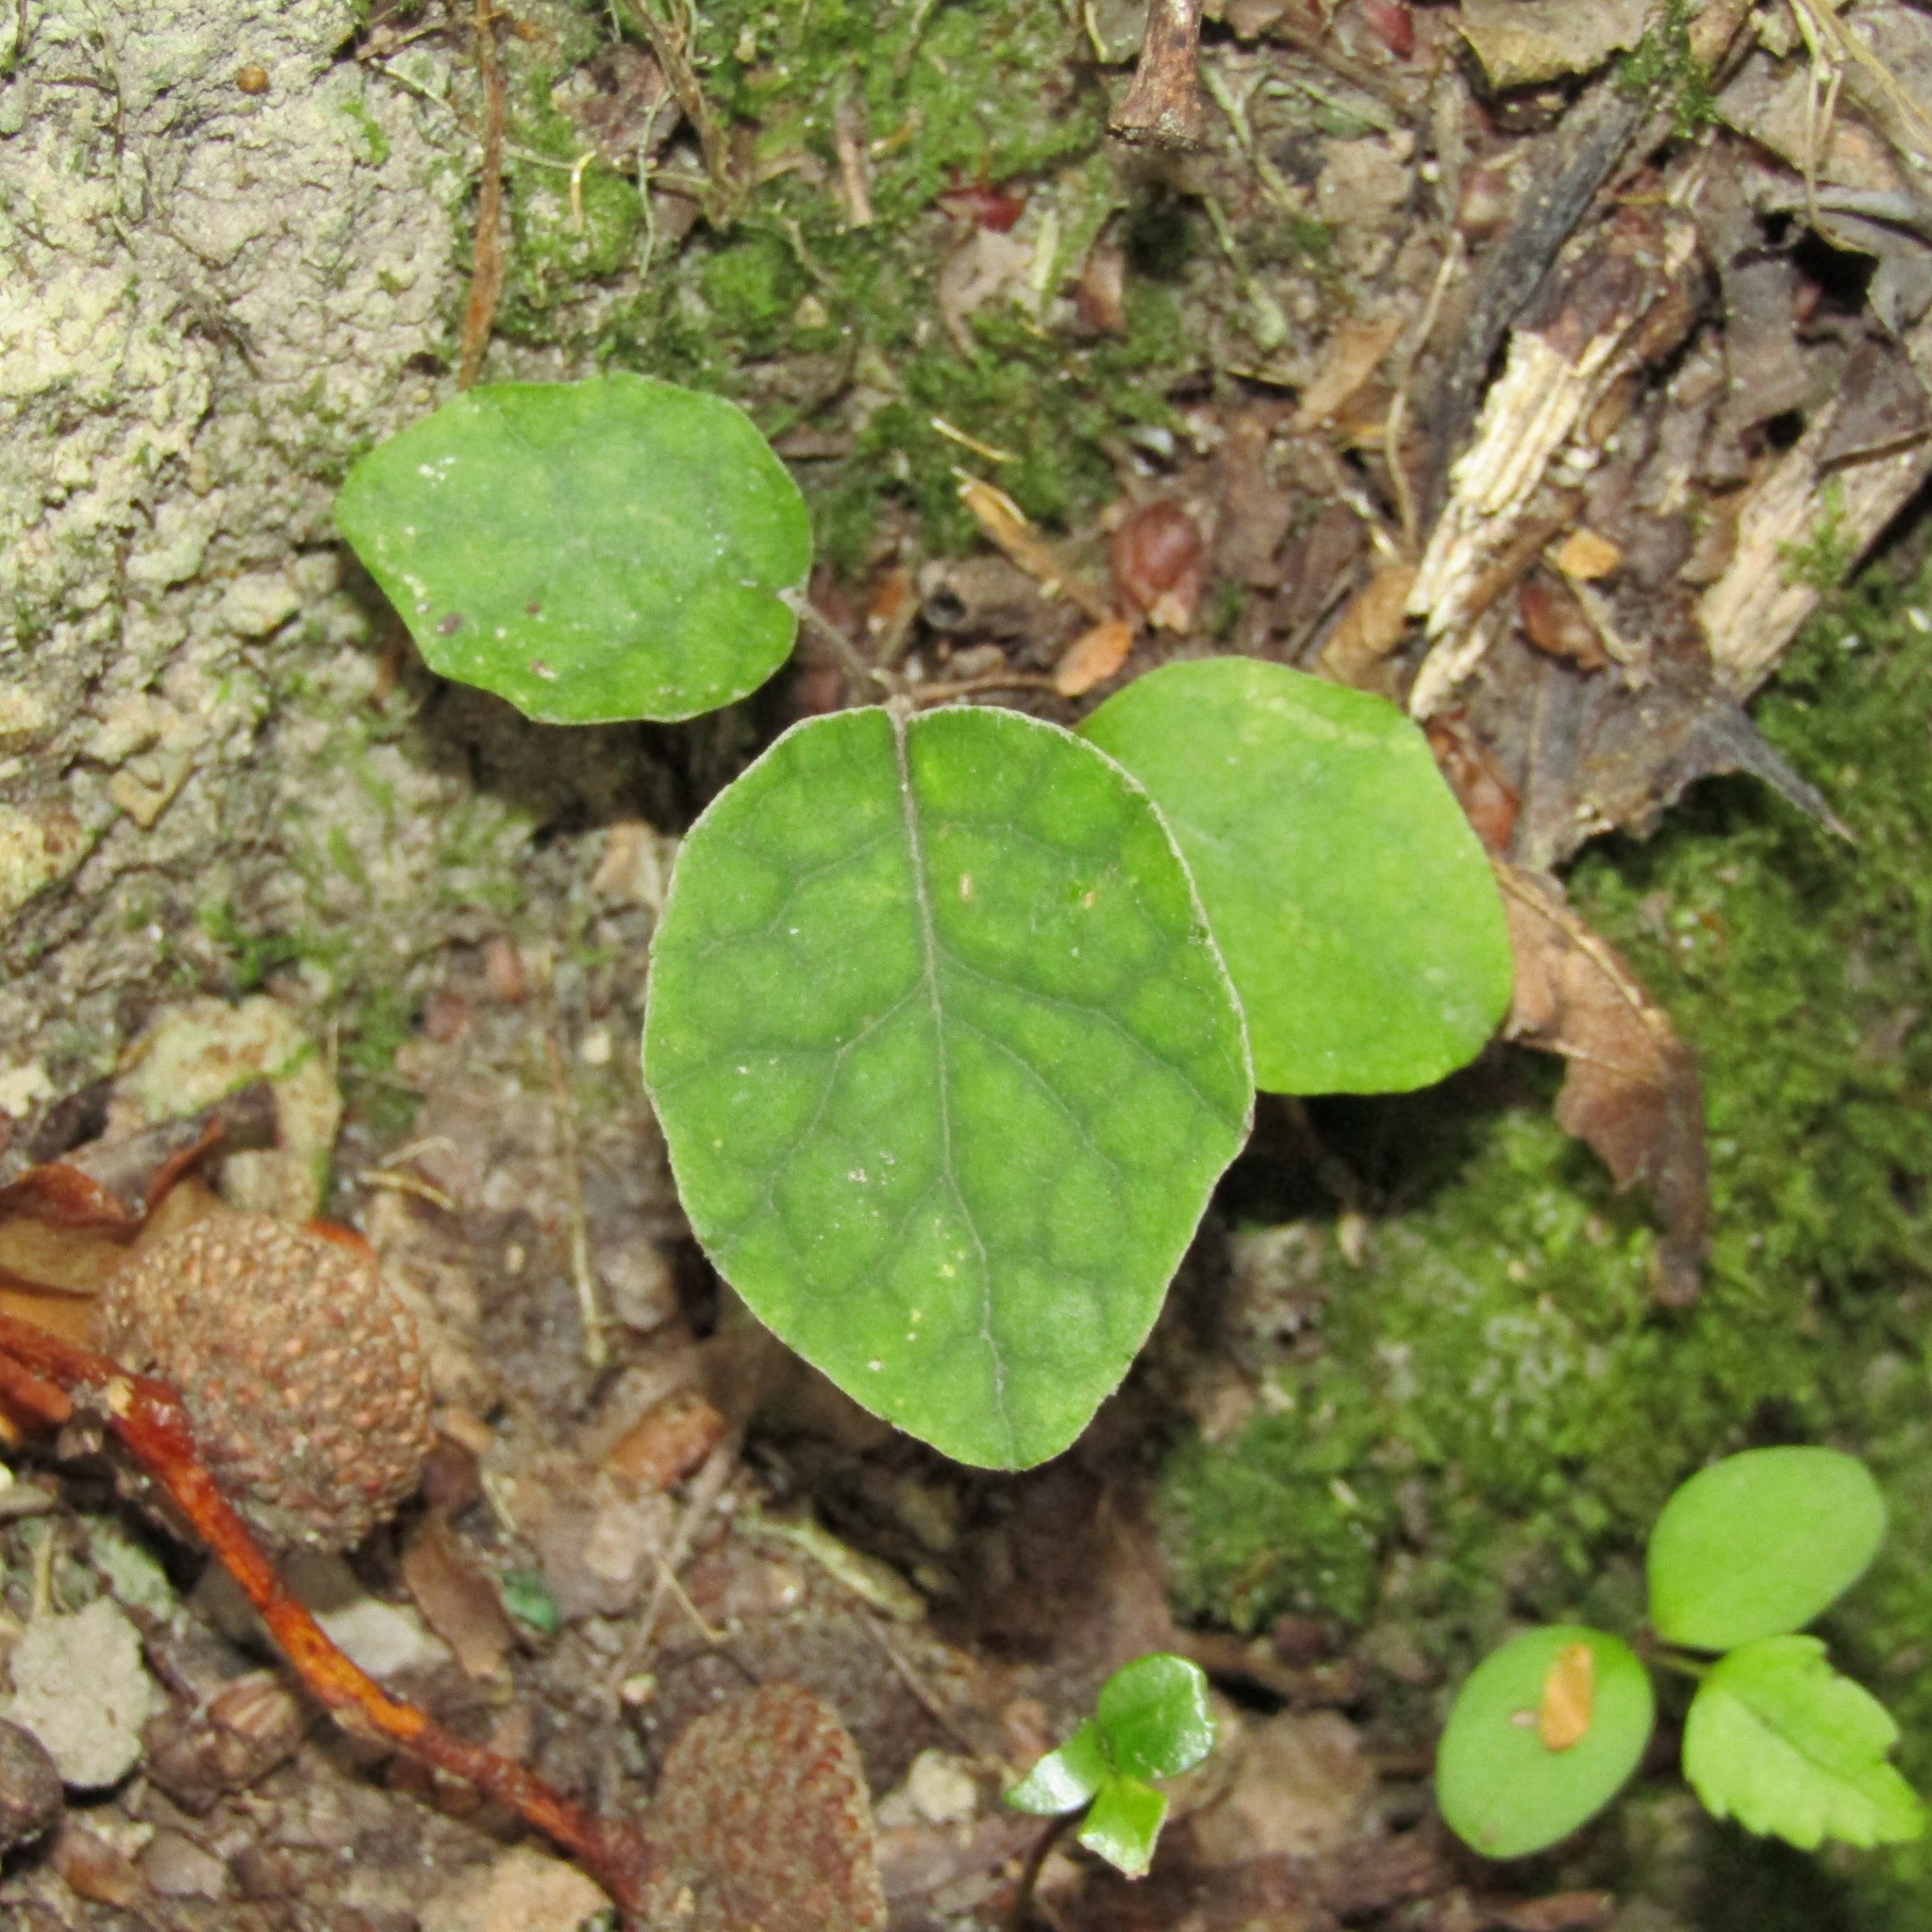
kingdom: Plantae
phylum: Tracheophyta
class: Magnoliopsida
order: Asterales
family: Asteraceae
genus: Brachyglottis
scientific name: Brachyglottis repanda
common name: Hedge ragwort
